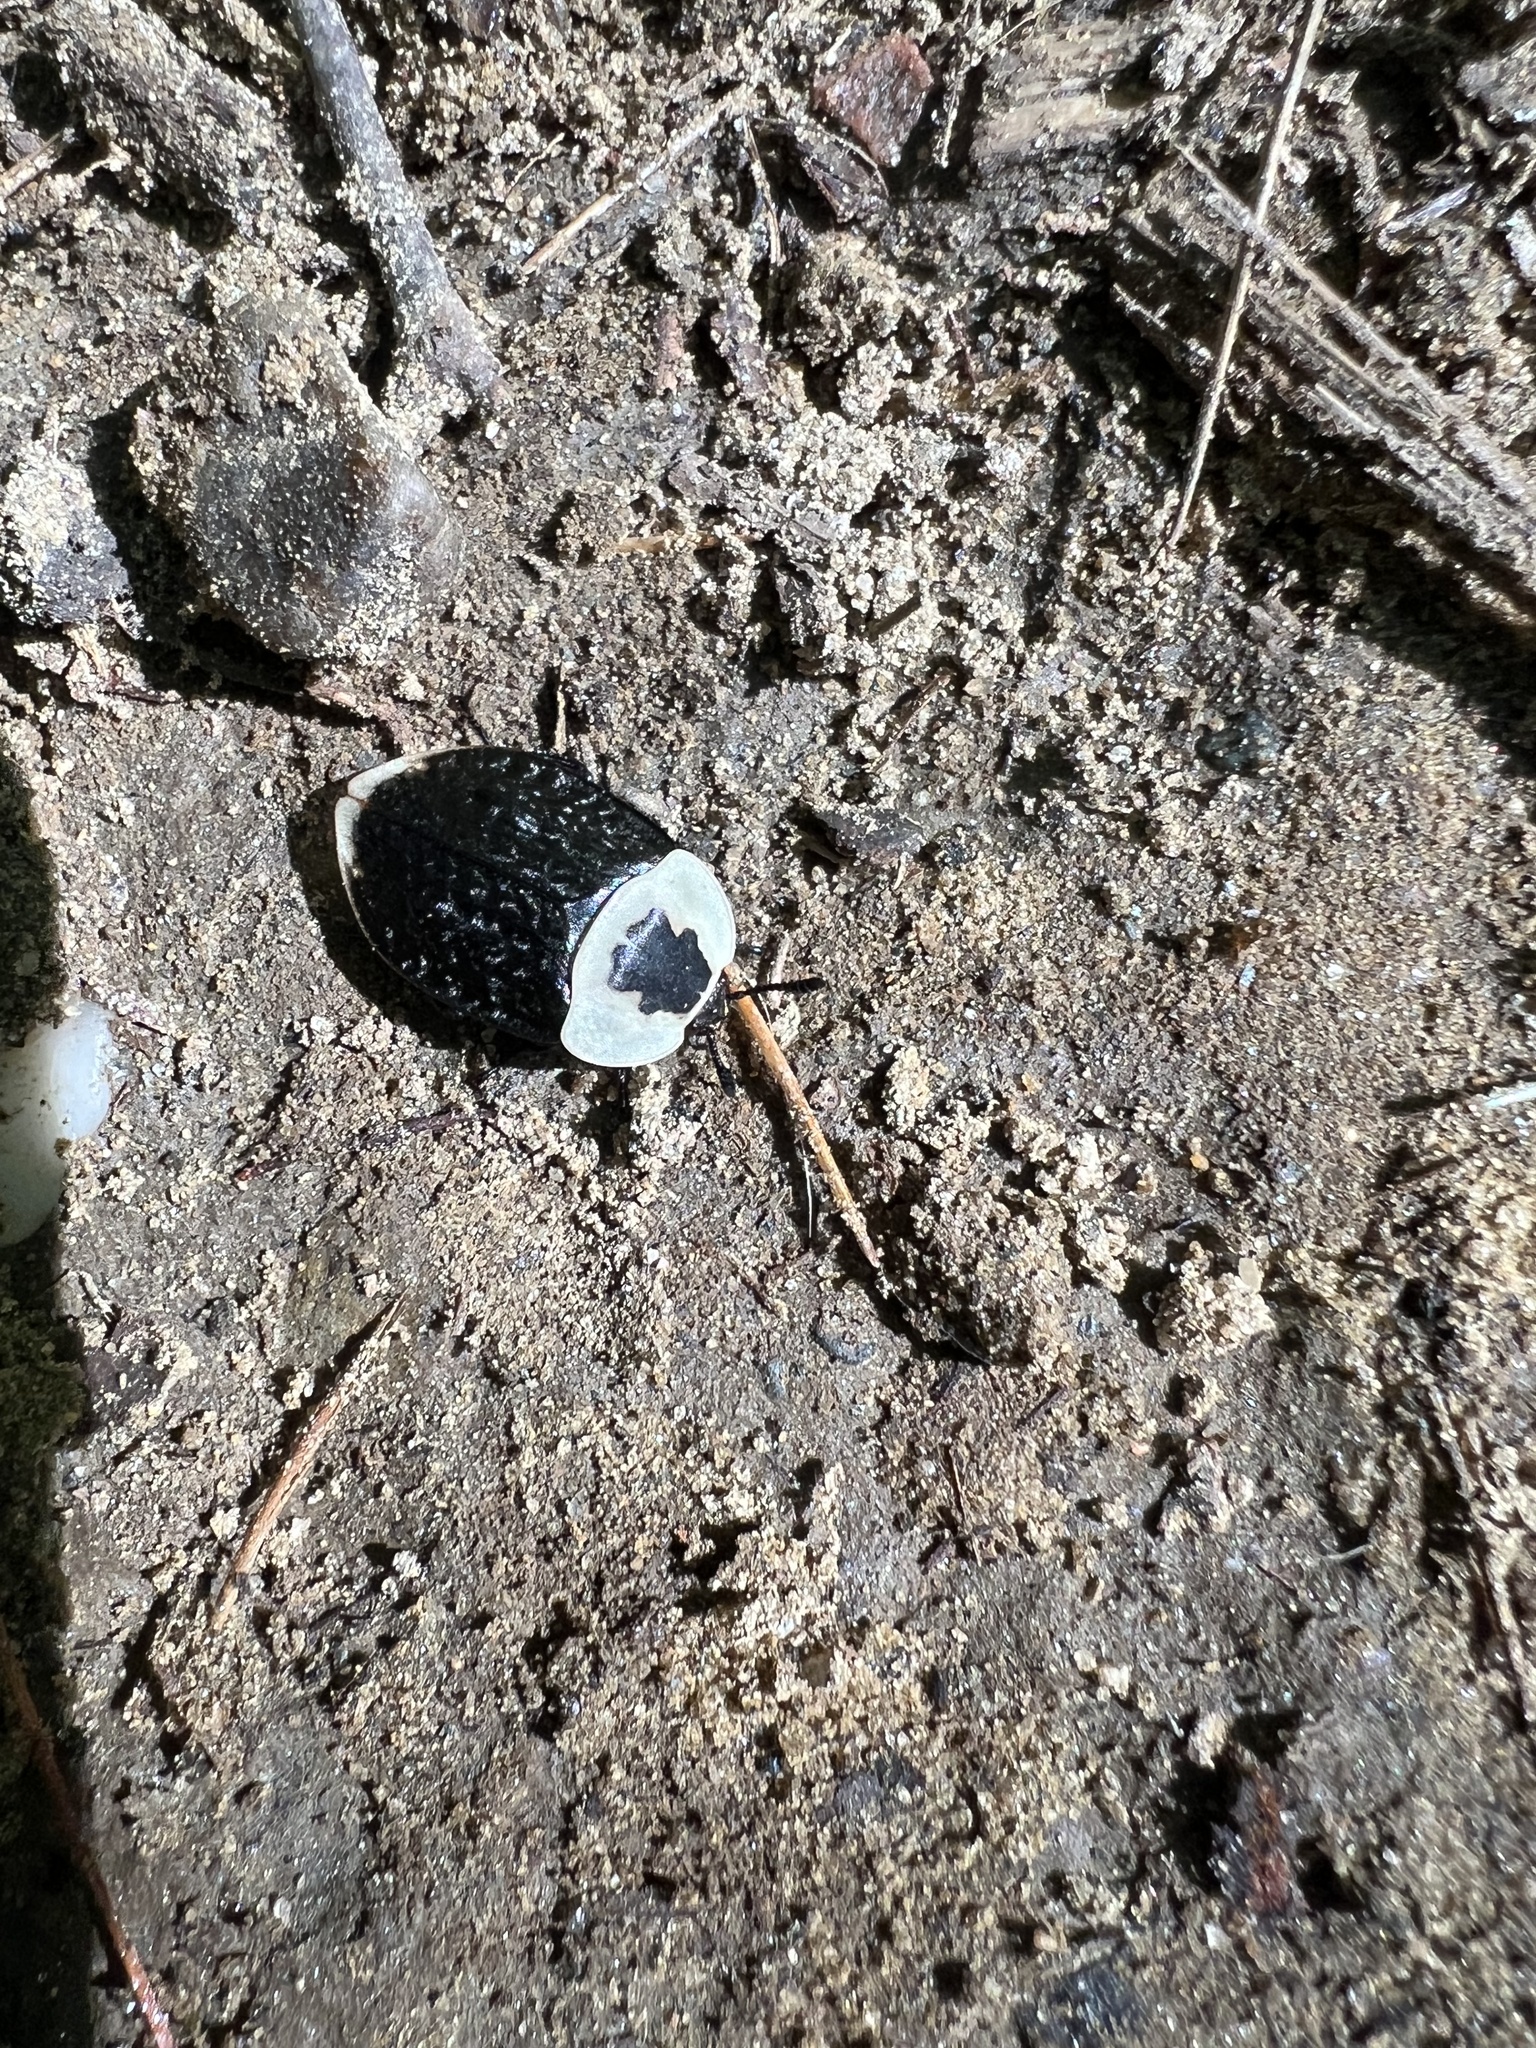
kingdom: Animalia
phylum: Arthropoda
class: Insecta
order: Coleoptera
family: Staphylinidae
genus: Necrophila
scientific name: Necrophila americana
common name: American carrion beetle
